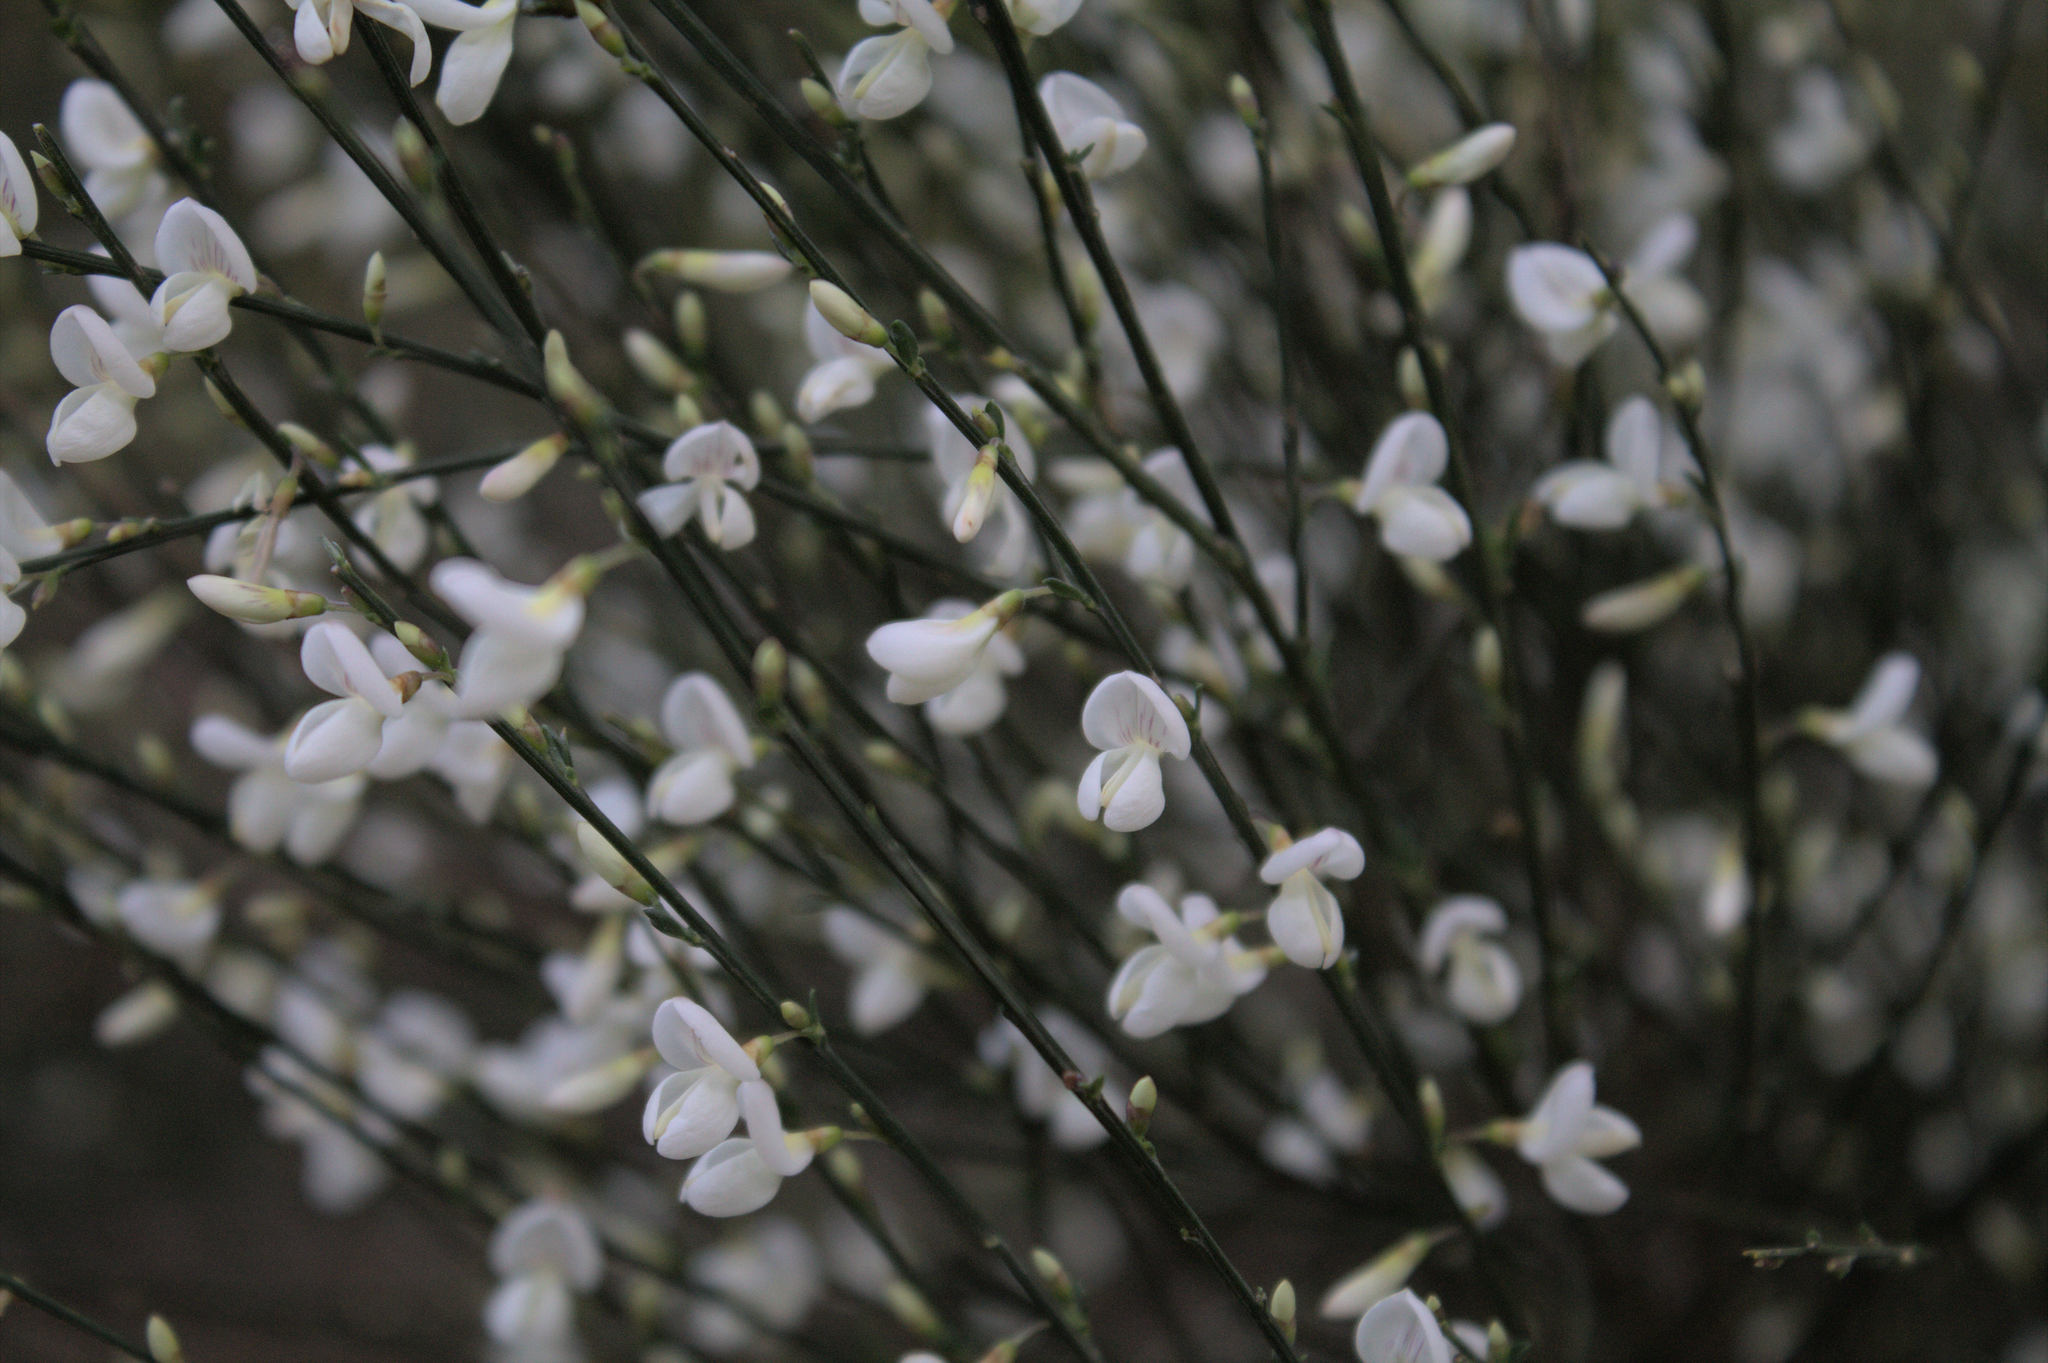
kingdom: Plantae
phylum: Tracheophyta
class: Magnoliopsida
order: Fabales
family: Fabaceae
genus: Cytisus
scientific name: Cytisus multiflorus
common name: White broom
